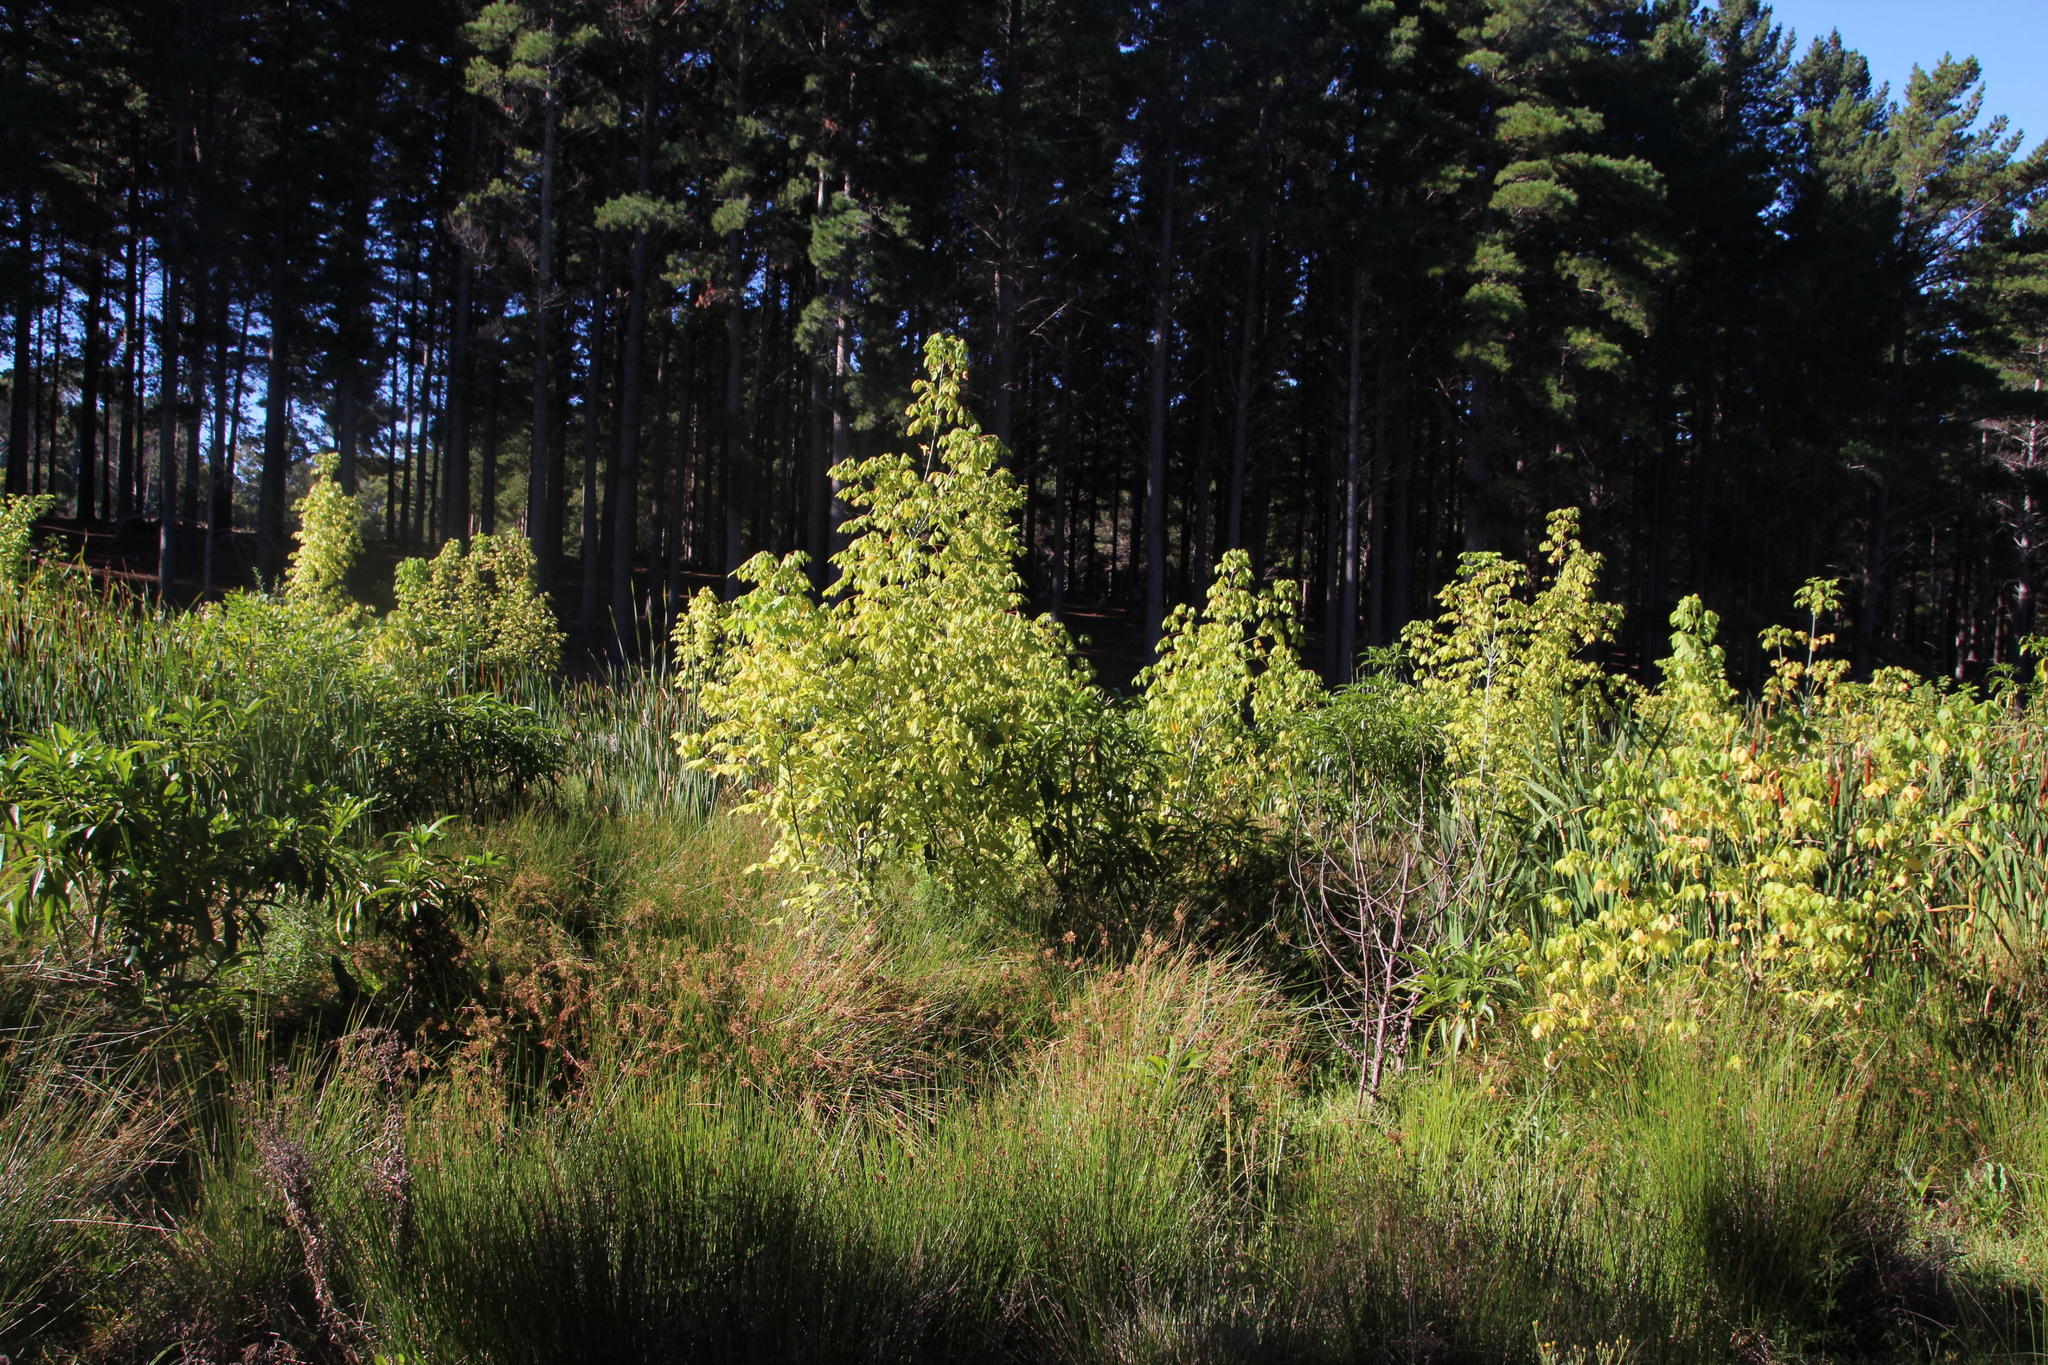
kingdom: Plantae
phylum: Tracheophyta
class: Magnoliopsida
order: Sapindales
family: Sapindaceae
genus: Acer
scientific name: Acer negundo
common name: Ashleaf maple
